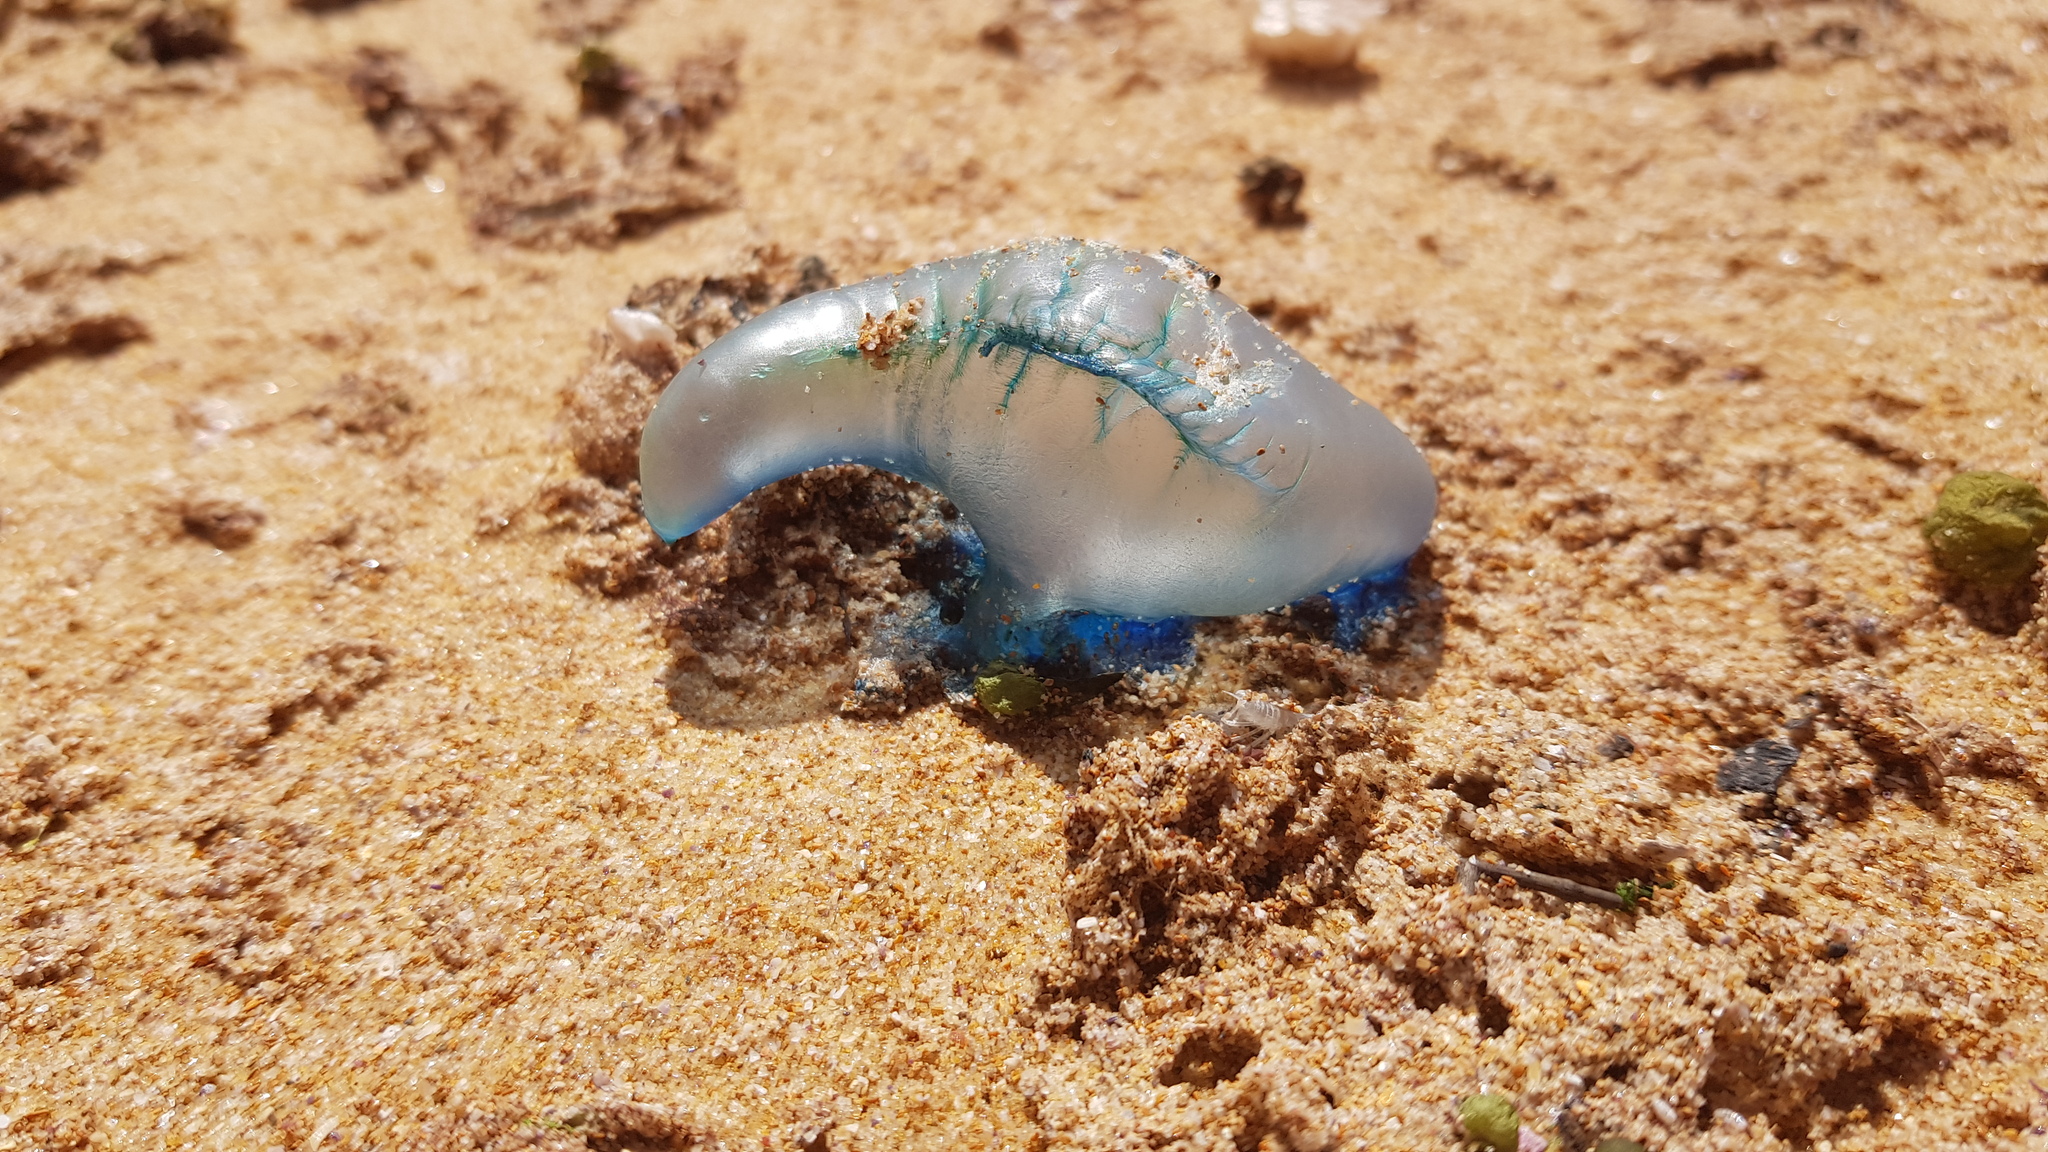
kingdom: Animalia
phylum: Cnidaria
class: Hydrozoa
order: Siphonophorae
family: Physaliidae
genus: Physalia
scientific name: Physalia physalis
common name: Portuguese man-of-war
